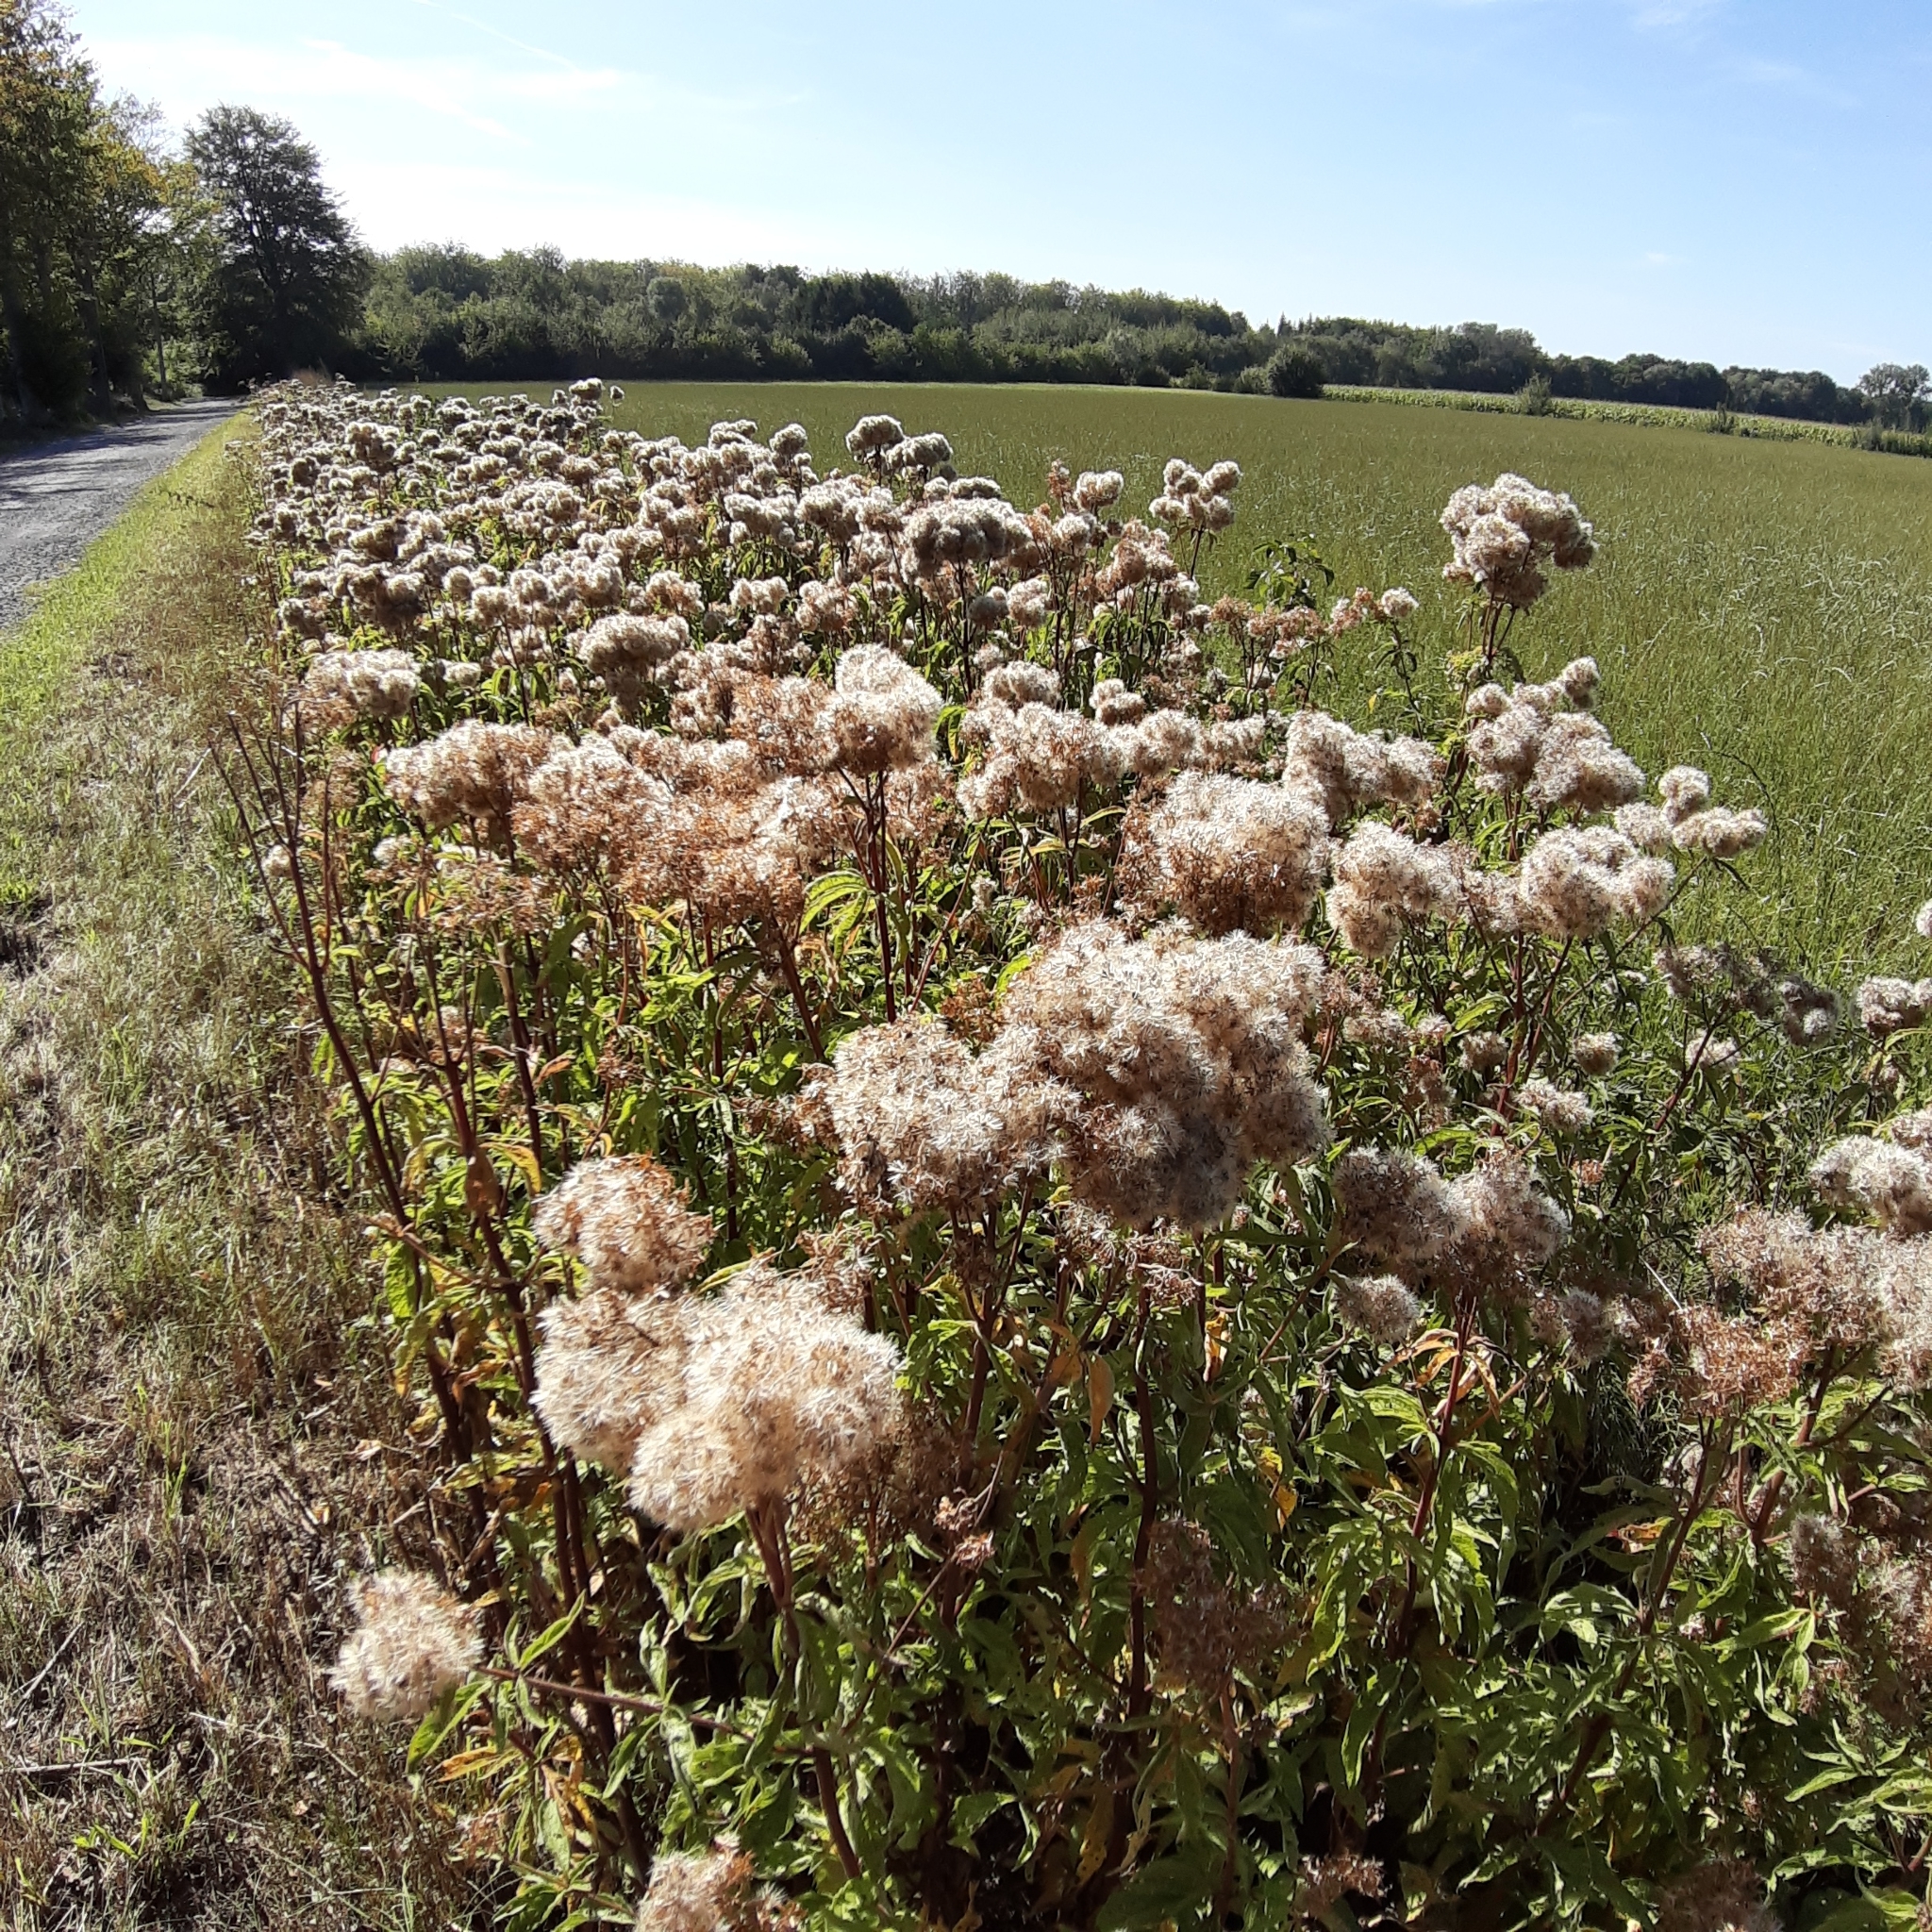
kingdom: Plantae
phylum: Tracheophyta
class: Magnoliopsida
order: Asterales
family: Asteraceae
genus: Eupatorium
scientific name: Eupatorium cannabinum
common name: Hemp-agrimony
